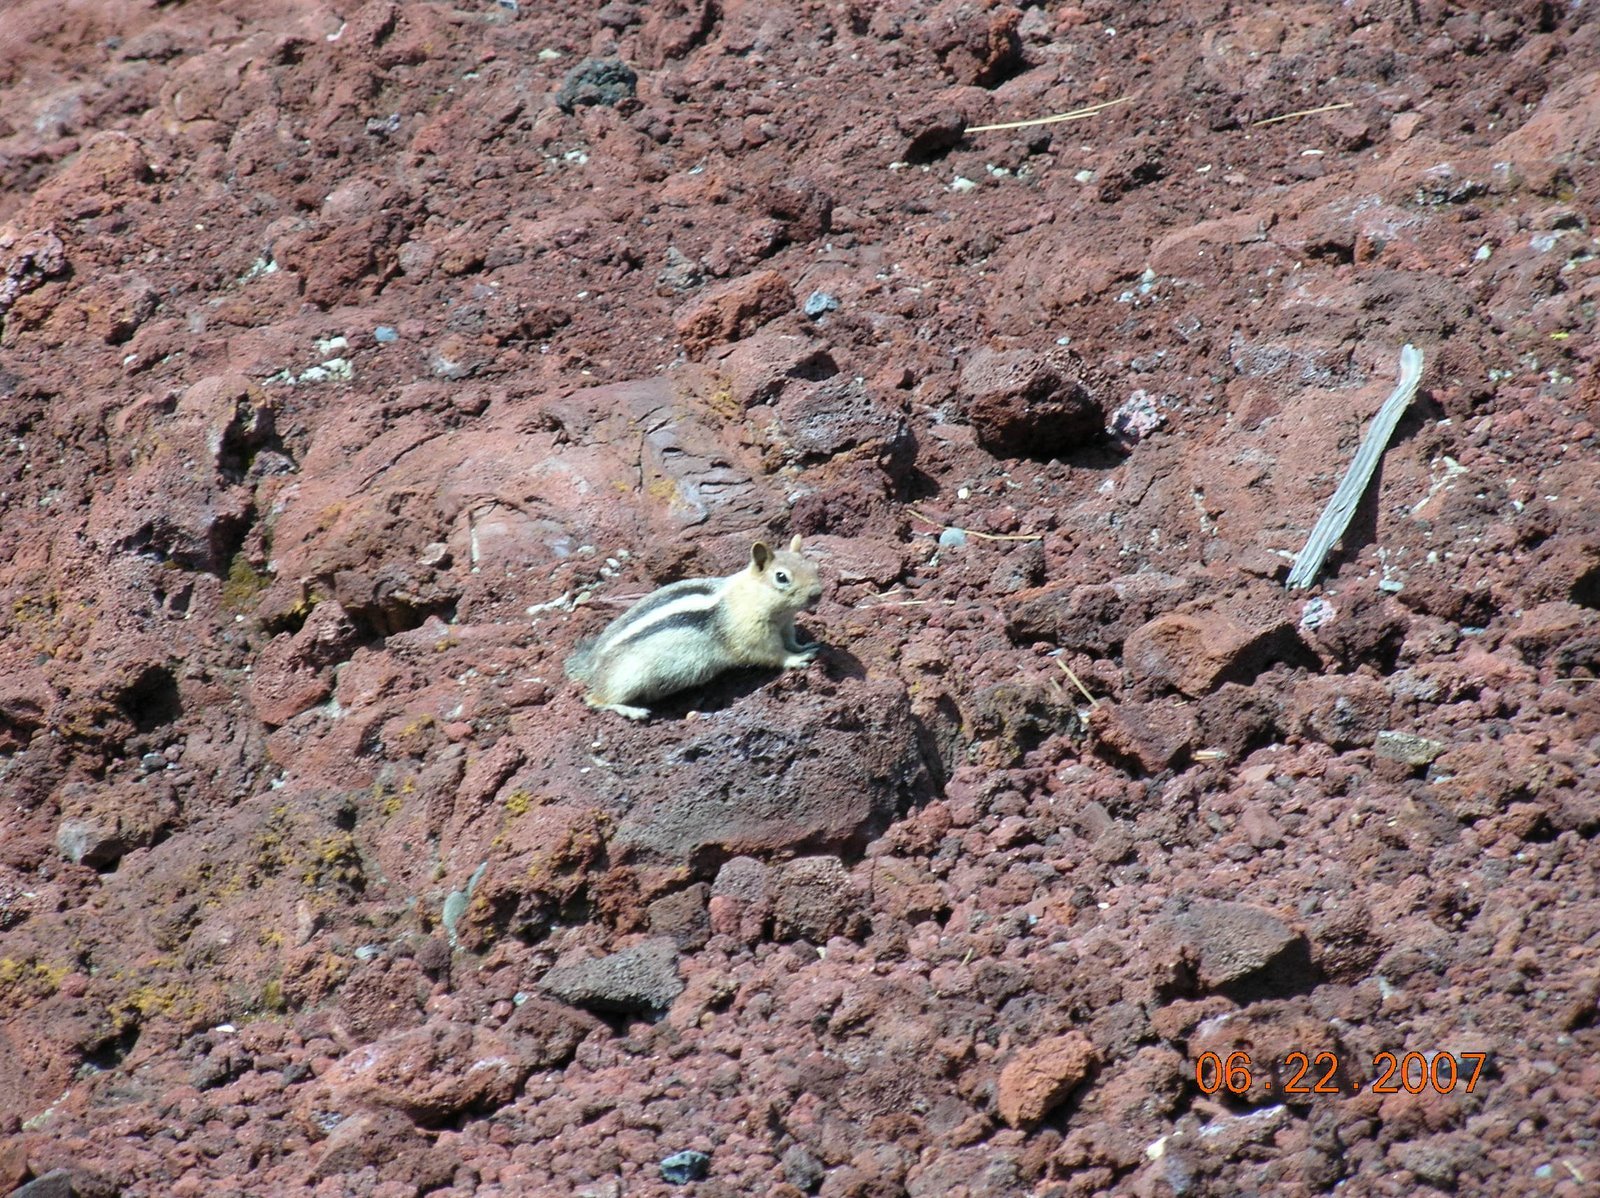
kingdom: Animalia
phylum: Chordata
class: Mammalia
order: Rodentia
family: Sciuridae
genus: Callospermophilus
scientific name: Callospermophilus lateralis
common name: Golden-mantled ground squirrel
